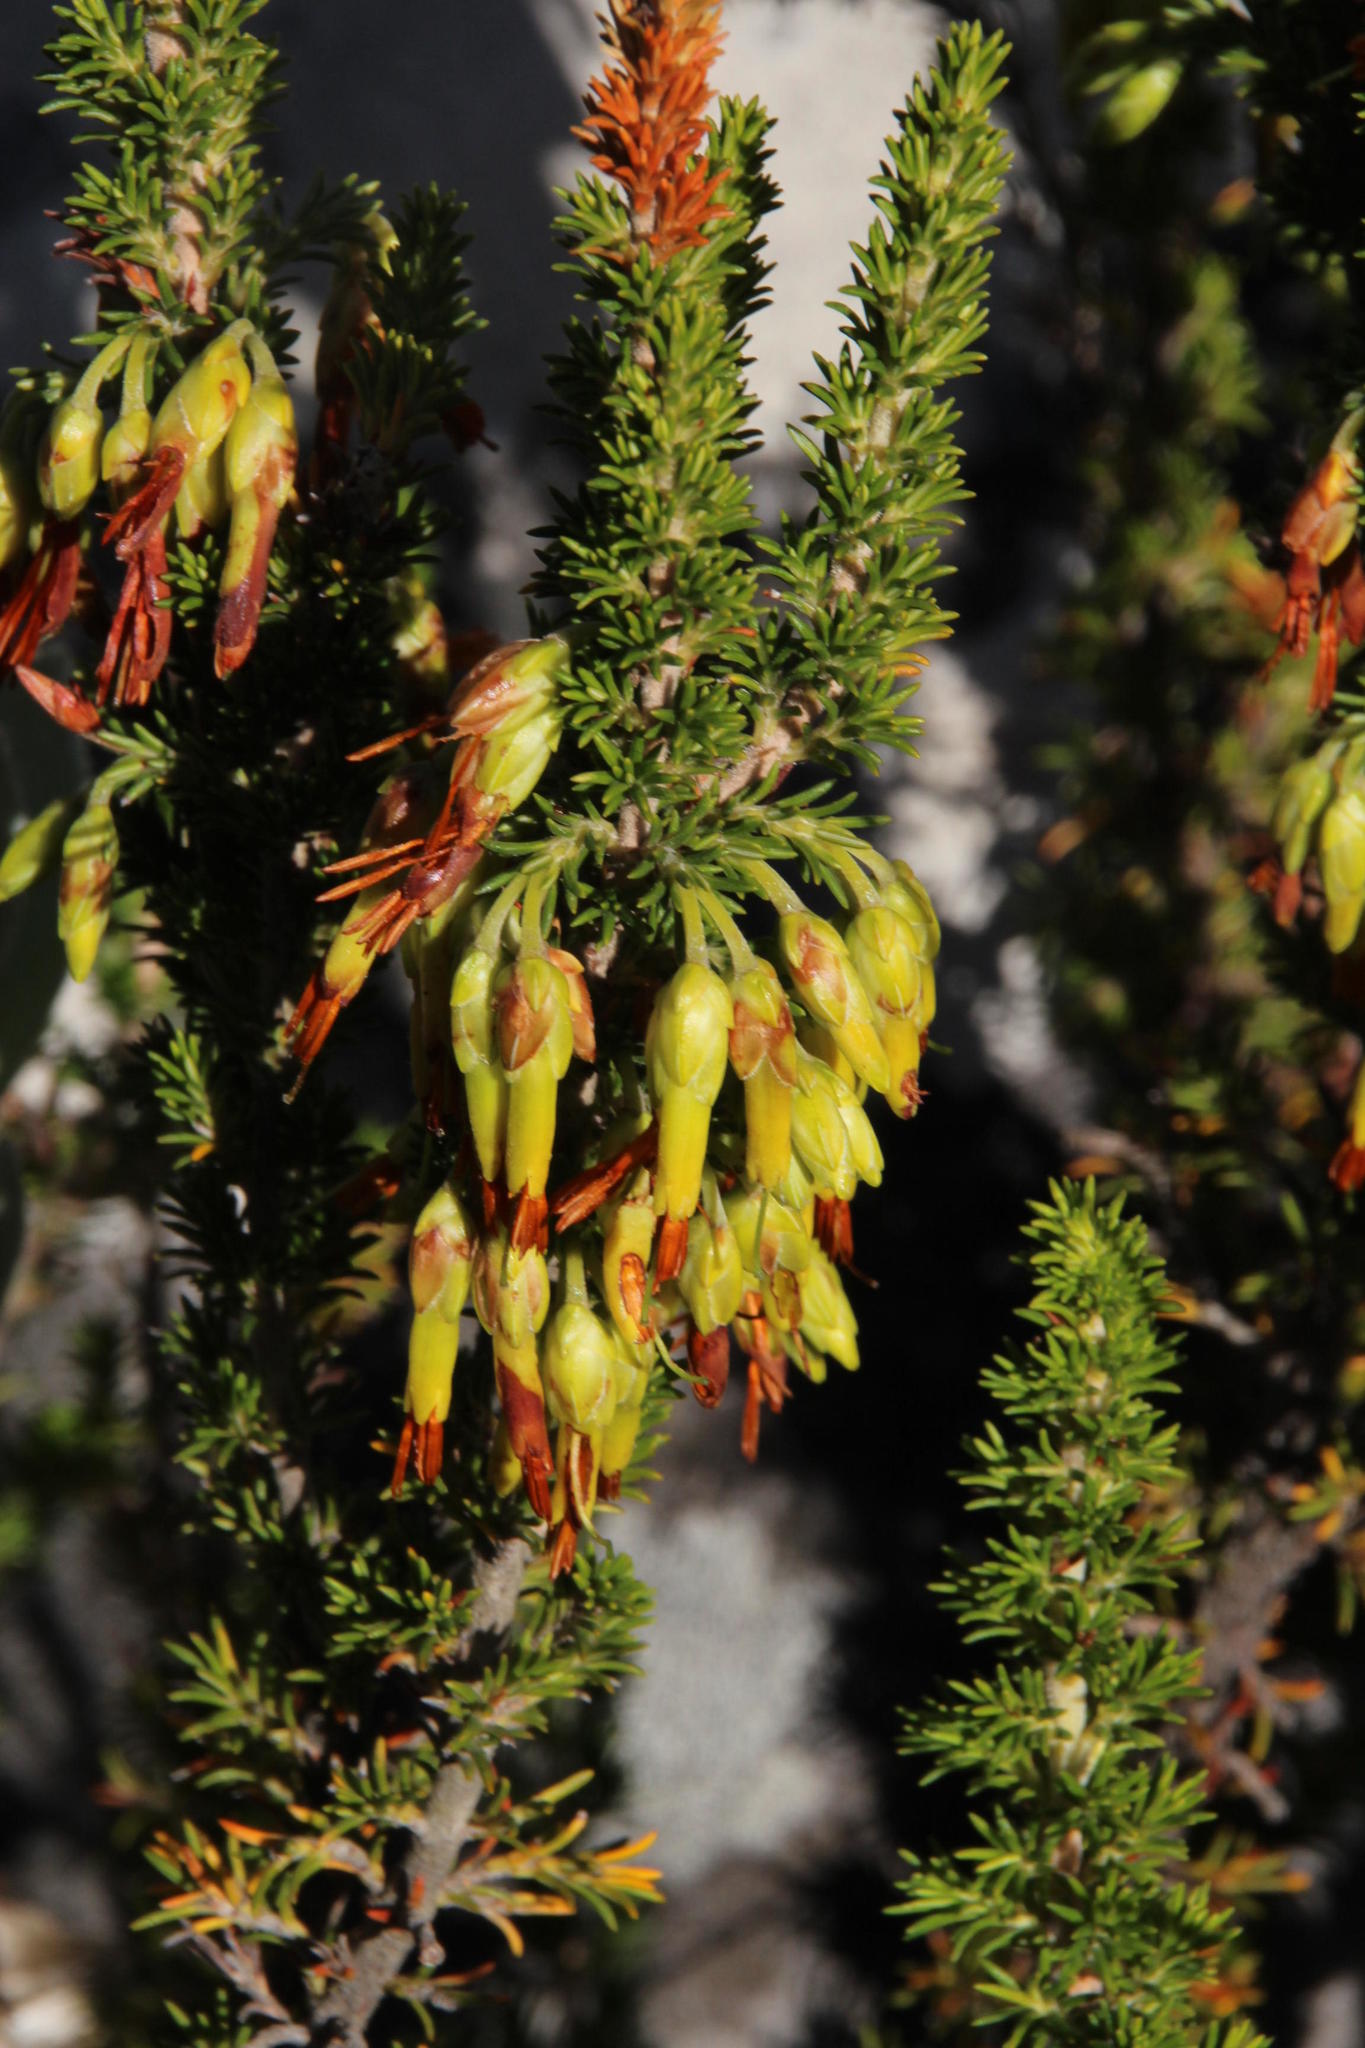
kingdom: Plantae
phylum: Tracheophyta
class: Magnoliopsida
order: Ericales
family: Ericaceae
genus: Erica
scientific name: Erica coccinea
